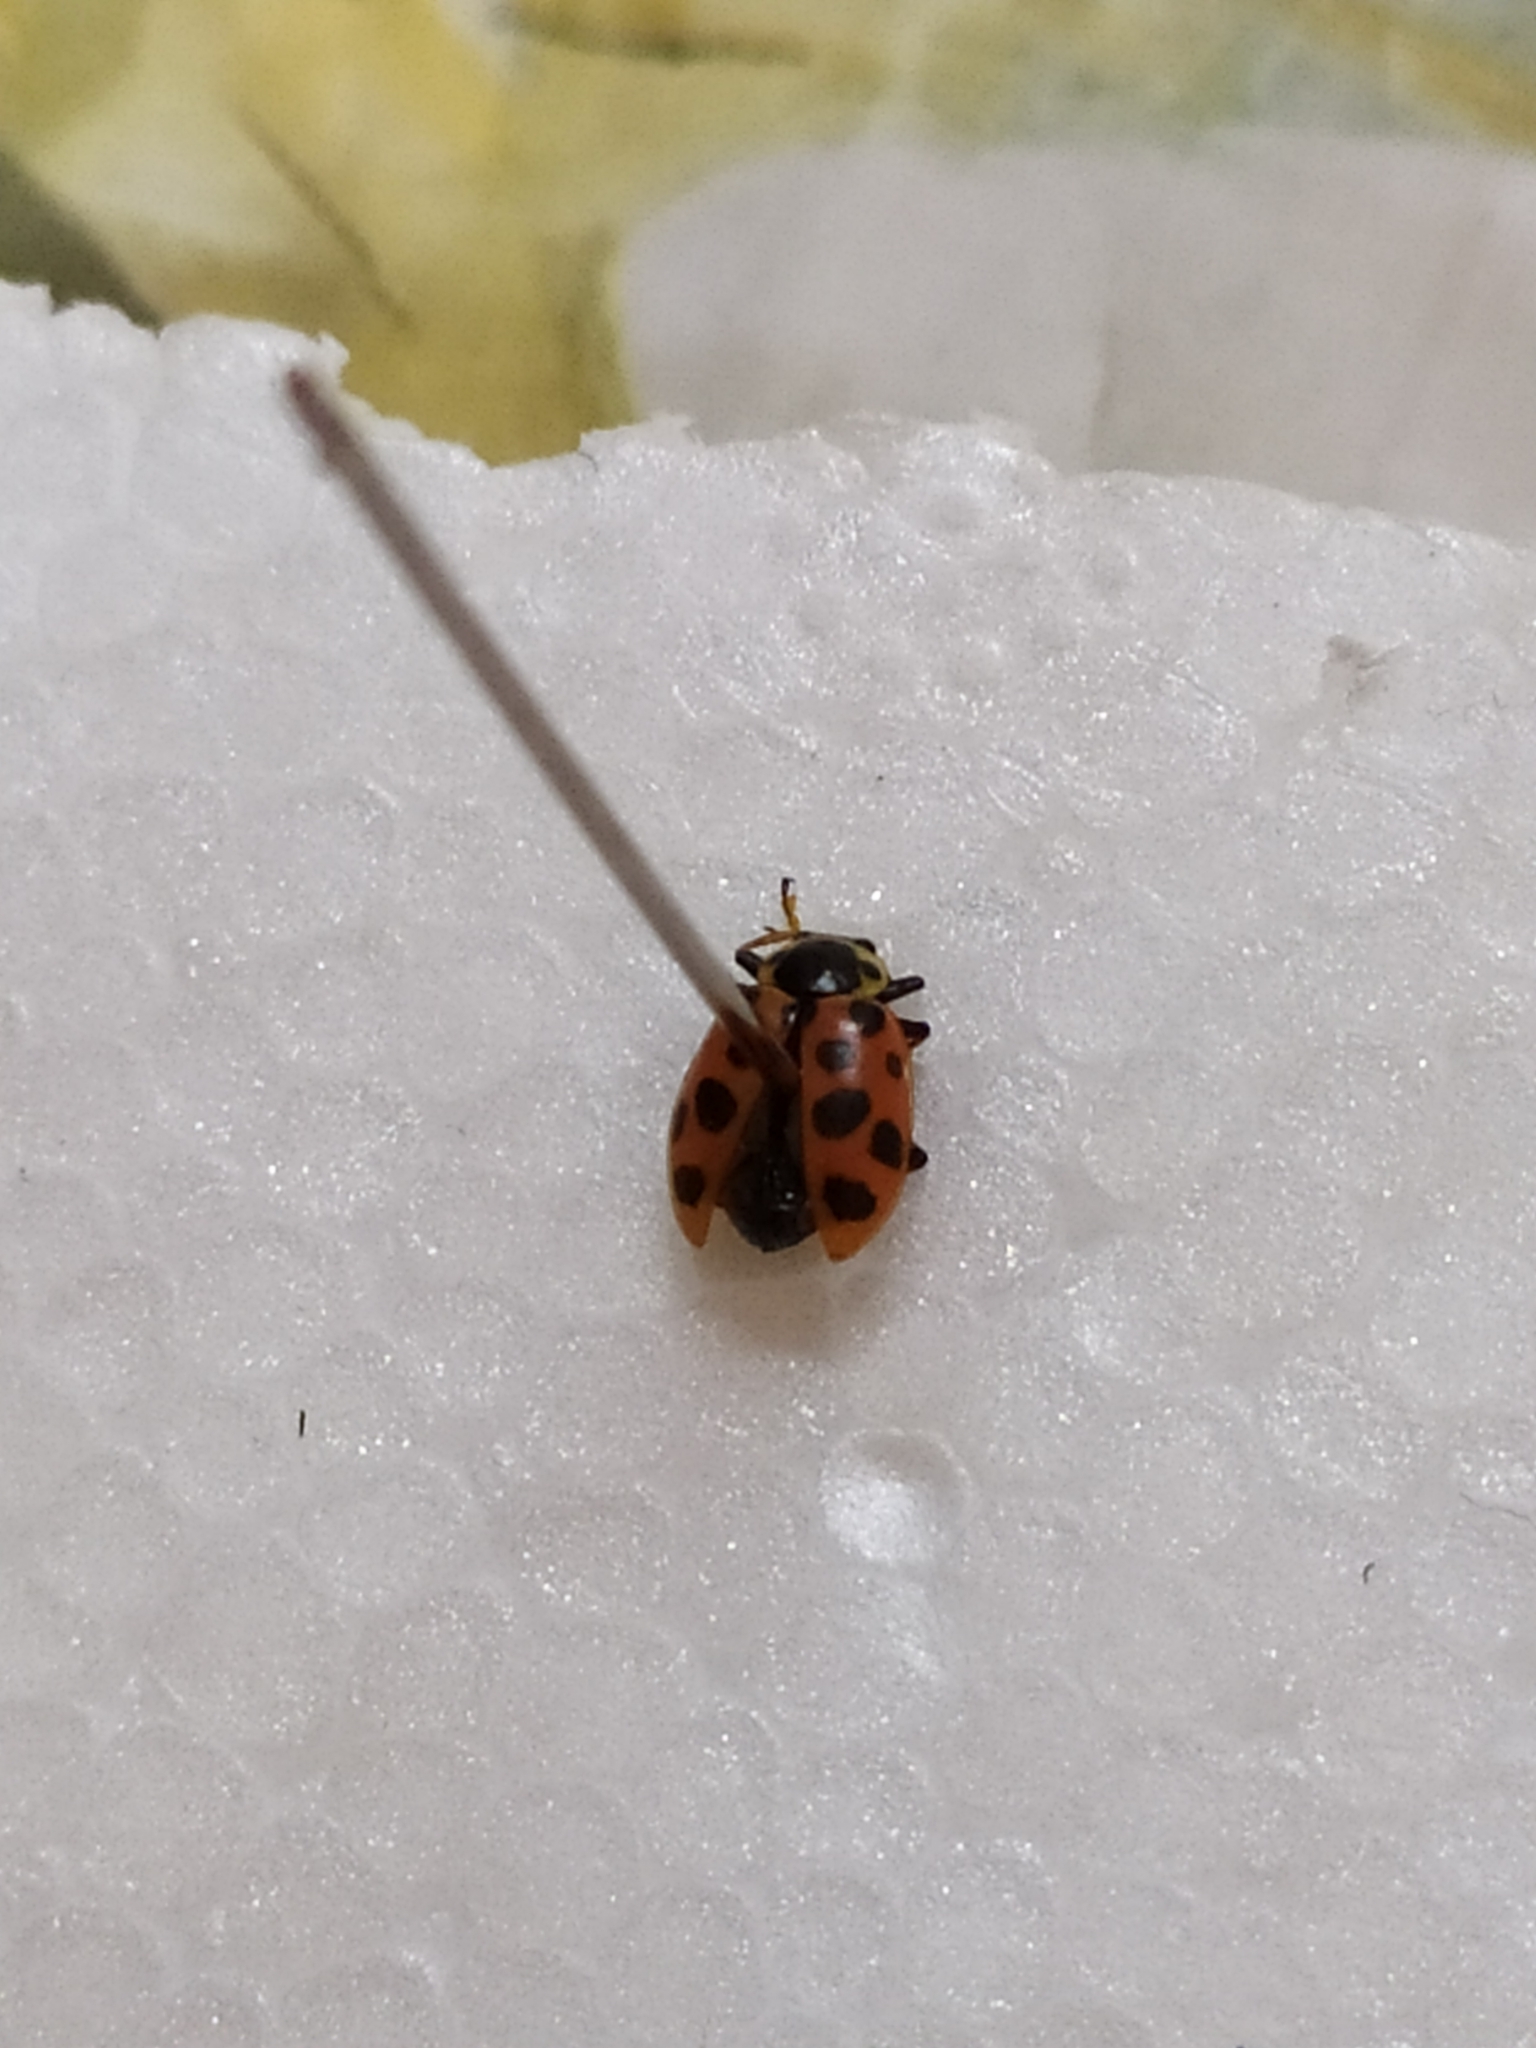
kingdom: Animalia
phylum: Arthropoda
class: Insecta
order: Coleoptera
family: Coccinellidae
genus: Hippodamia
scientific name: Hippodamia tredecimpunctata
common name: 13-spot ladybird
